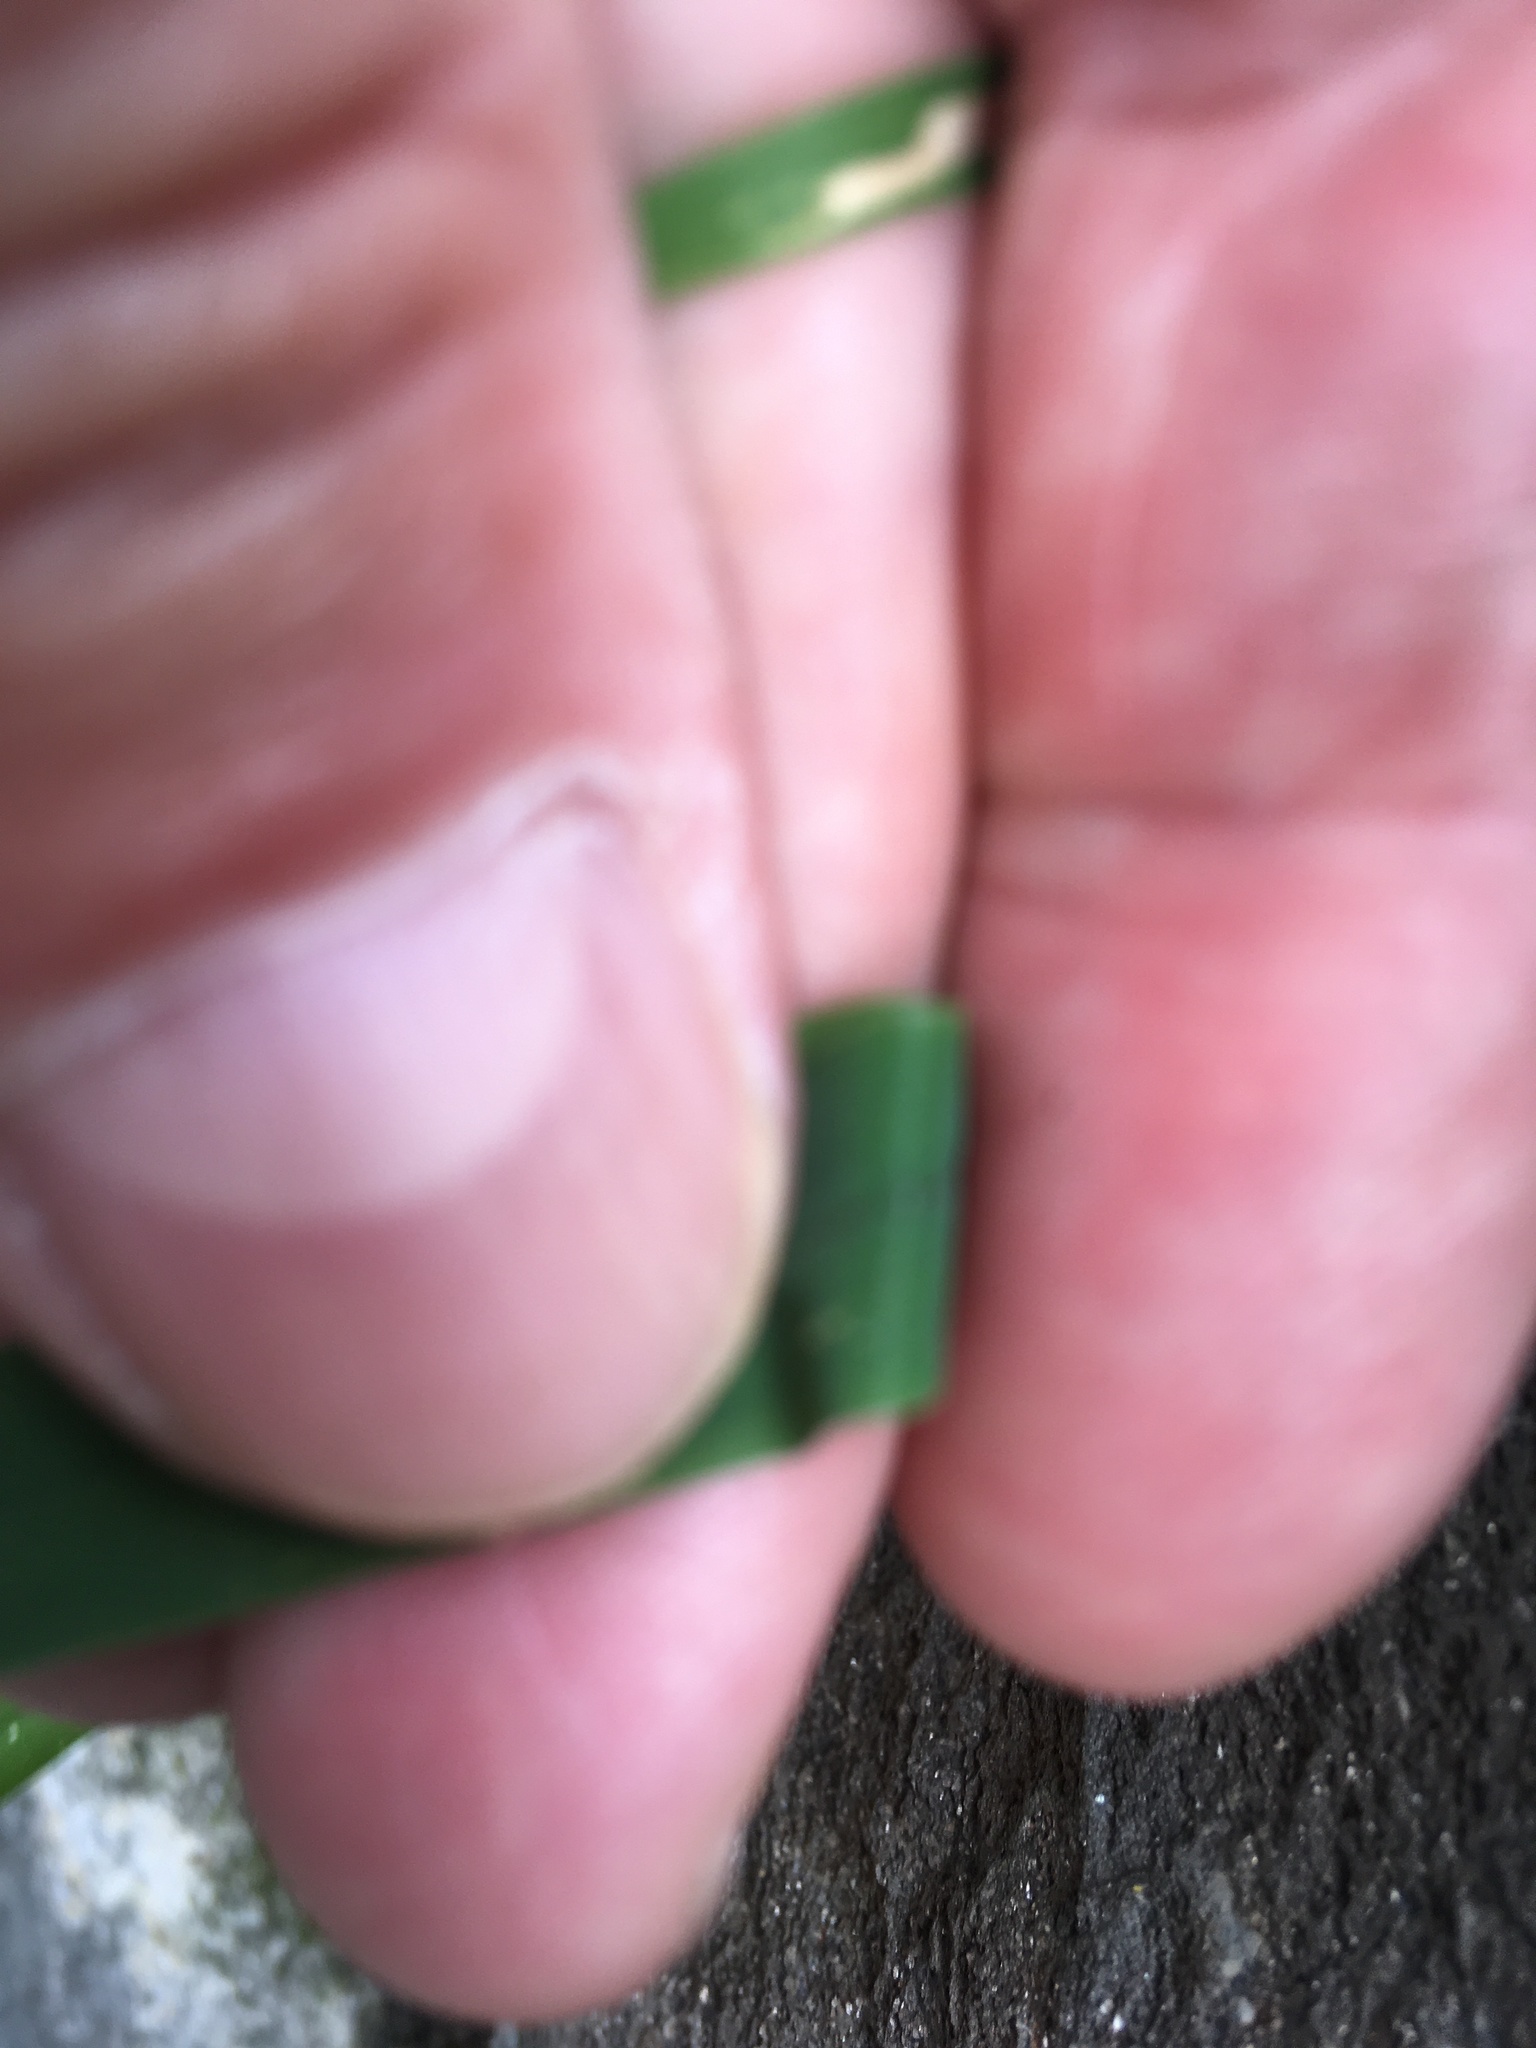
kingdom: Plantae
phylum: Tracheophyta
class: Liliopsida
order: Poales
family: Poaceae
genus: Setaria
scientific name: Setaria viridis
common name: Green bristlegrass
